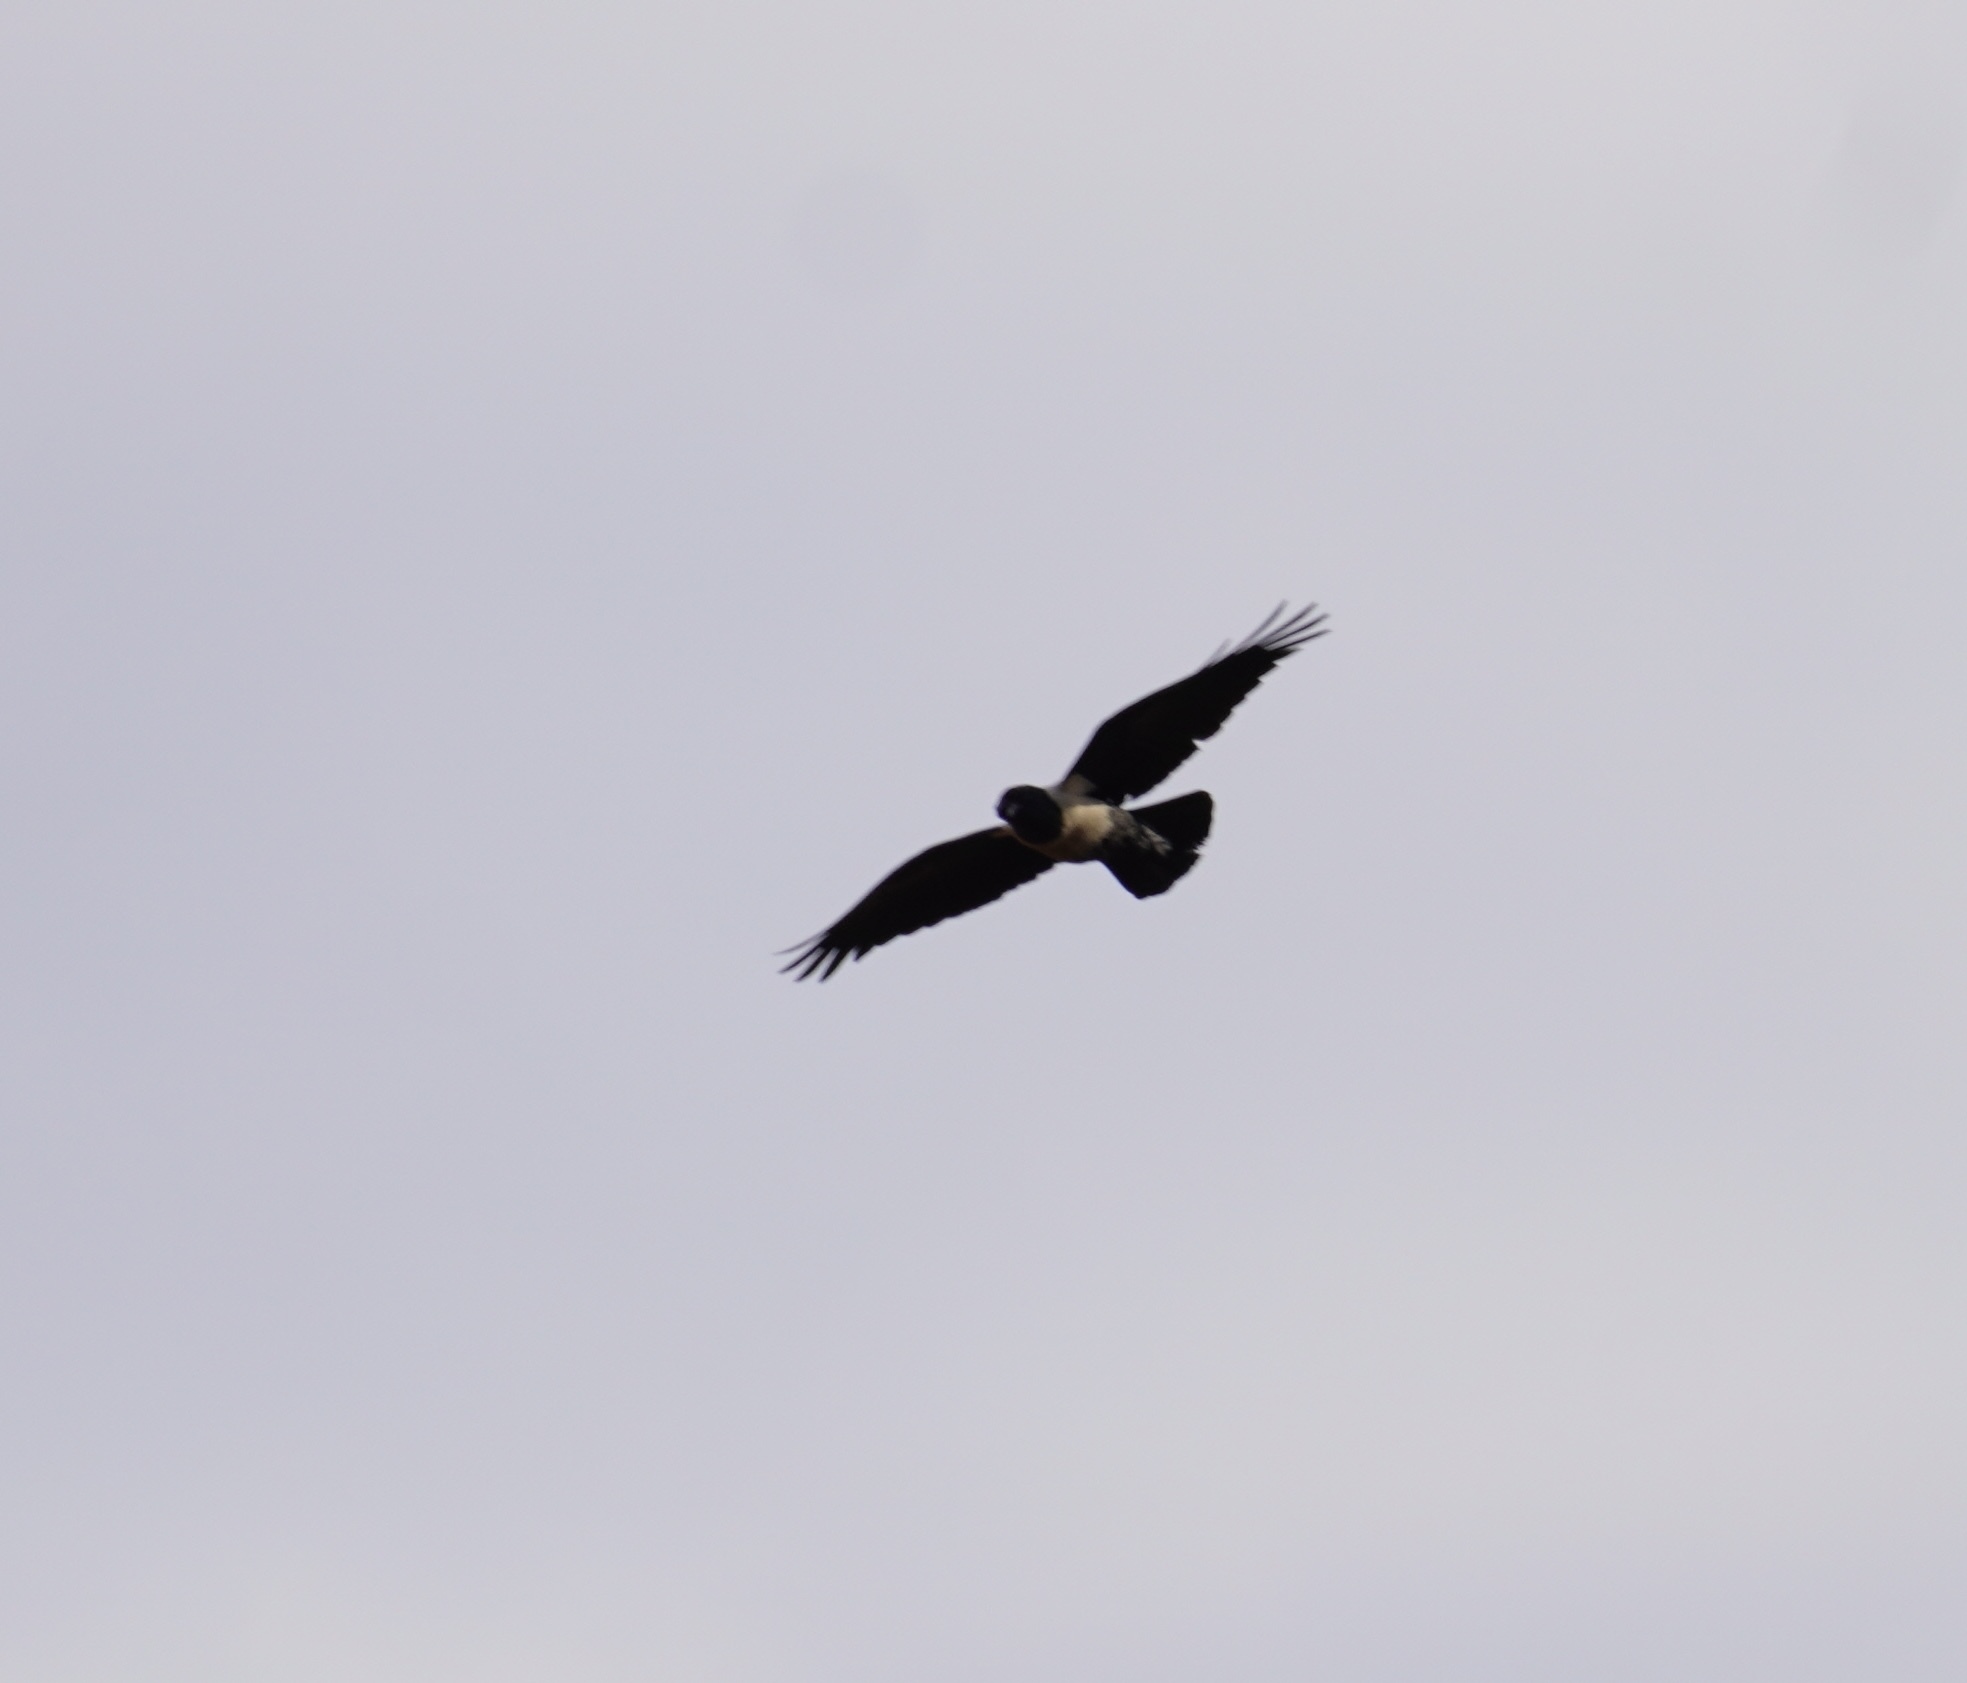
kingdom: Animalia
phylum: Chordata
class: Aves
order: Passeriformes
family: Corvidae
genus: Corvus
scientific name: Corvus albus
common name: Pied crow
